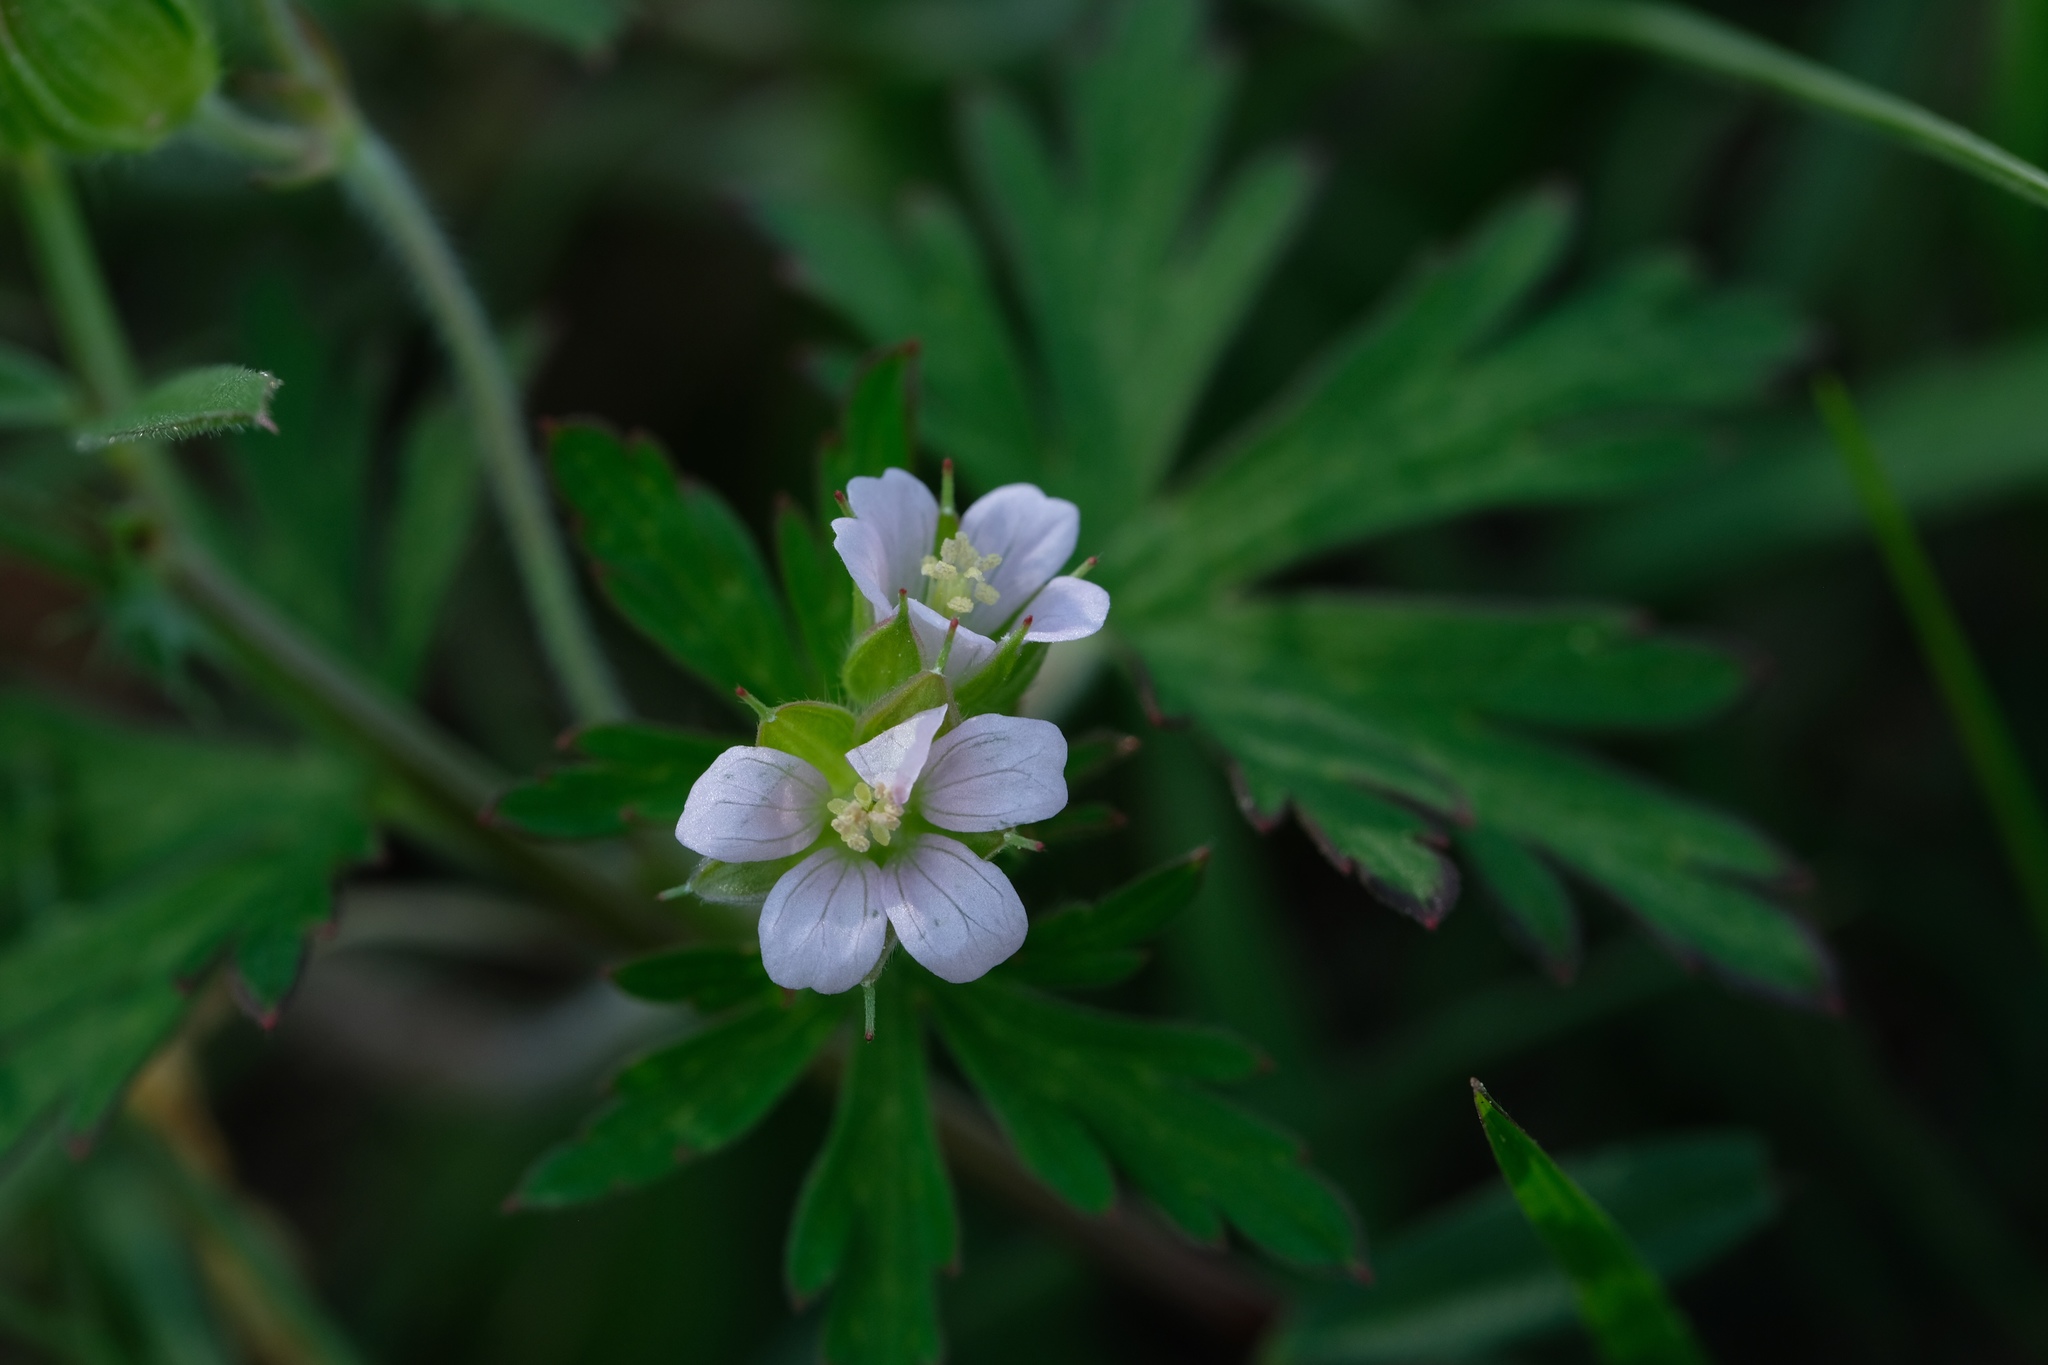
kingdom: Plantae
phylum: Tracheophyta
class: Magnoliopsida
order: Geraniales
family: Geraniaceae
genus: Geranium
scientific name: Geranium carolinianum
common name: Carolina crane's-bill
